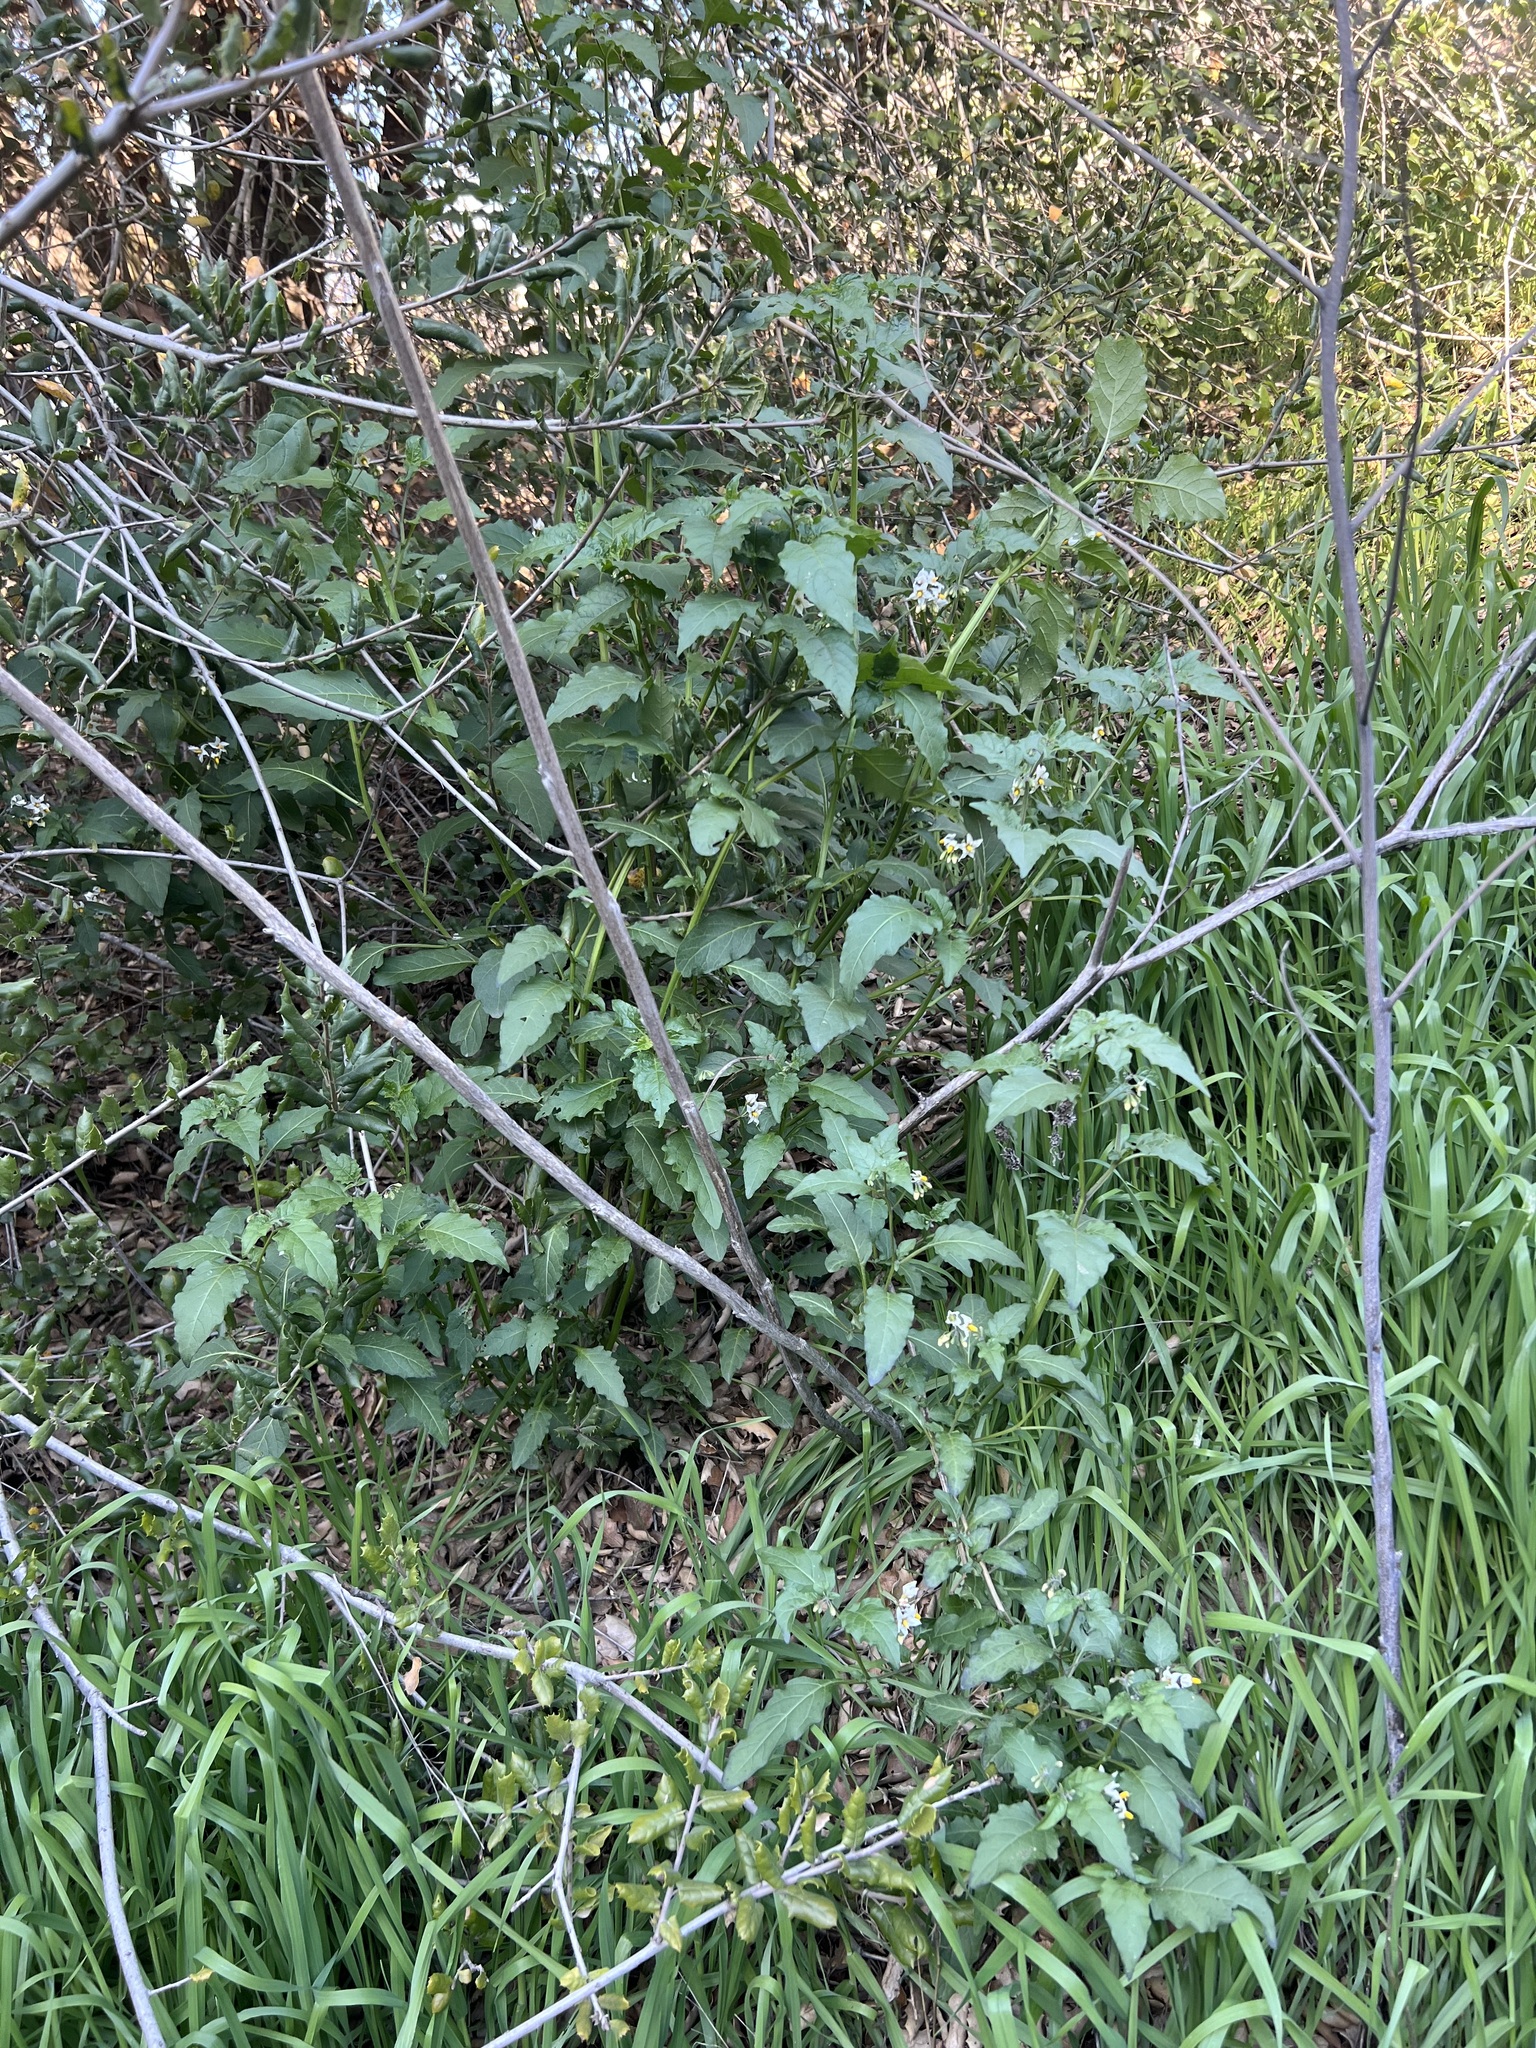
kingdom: Plantae
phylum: Tracheophyta
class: Magnoliopsida
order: Solanales
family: Solanaceae
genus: Solanum
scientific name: Solanum douglasii
